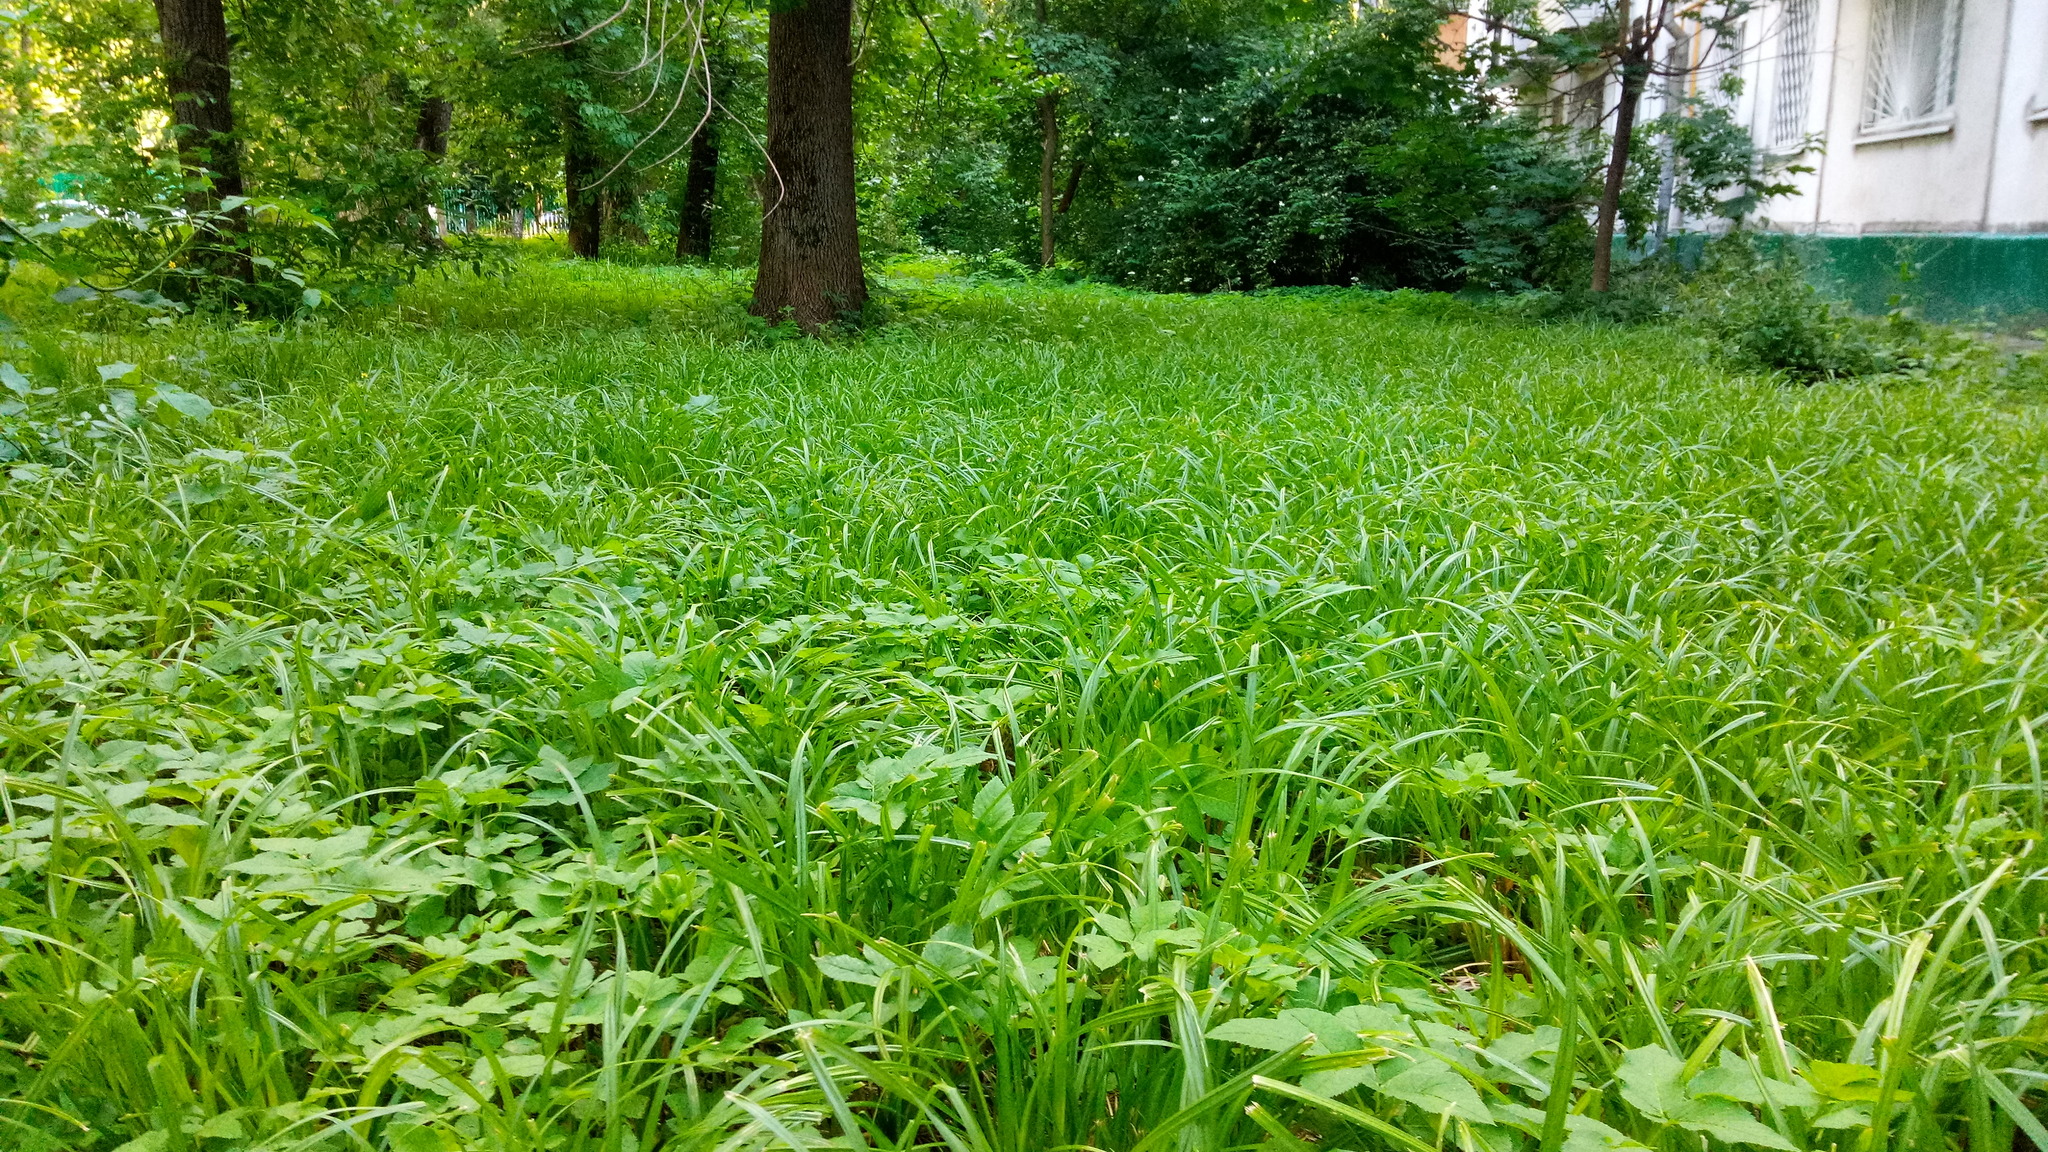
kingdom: Plantae
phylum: Tracheophyta
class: Liliopsida
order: Poales
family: Cyperaceae
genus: Carex
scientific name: Carex pilosa
